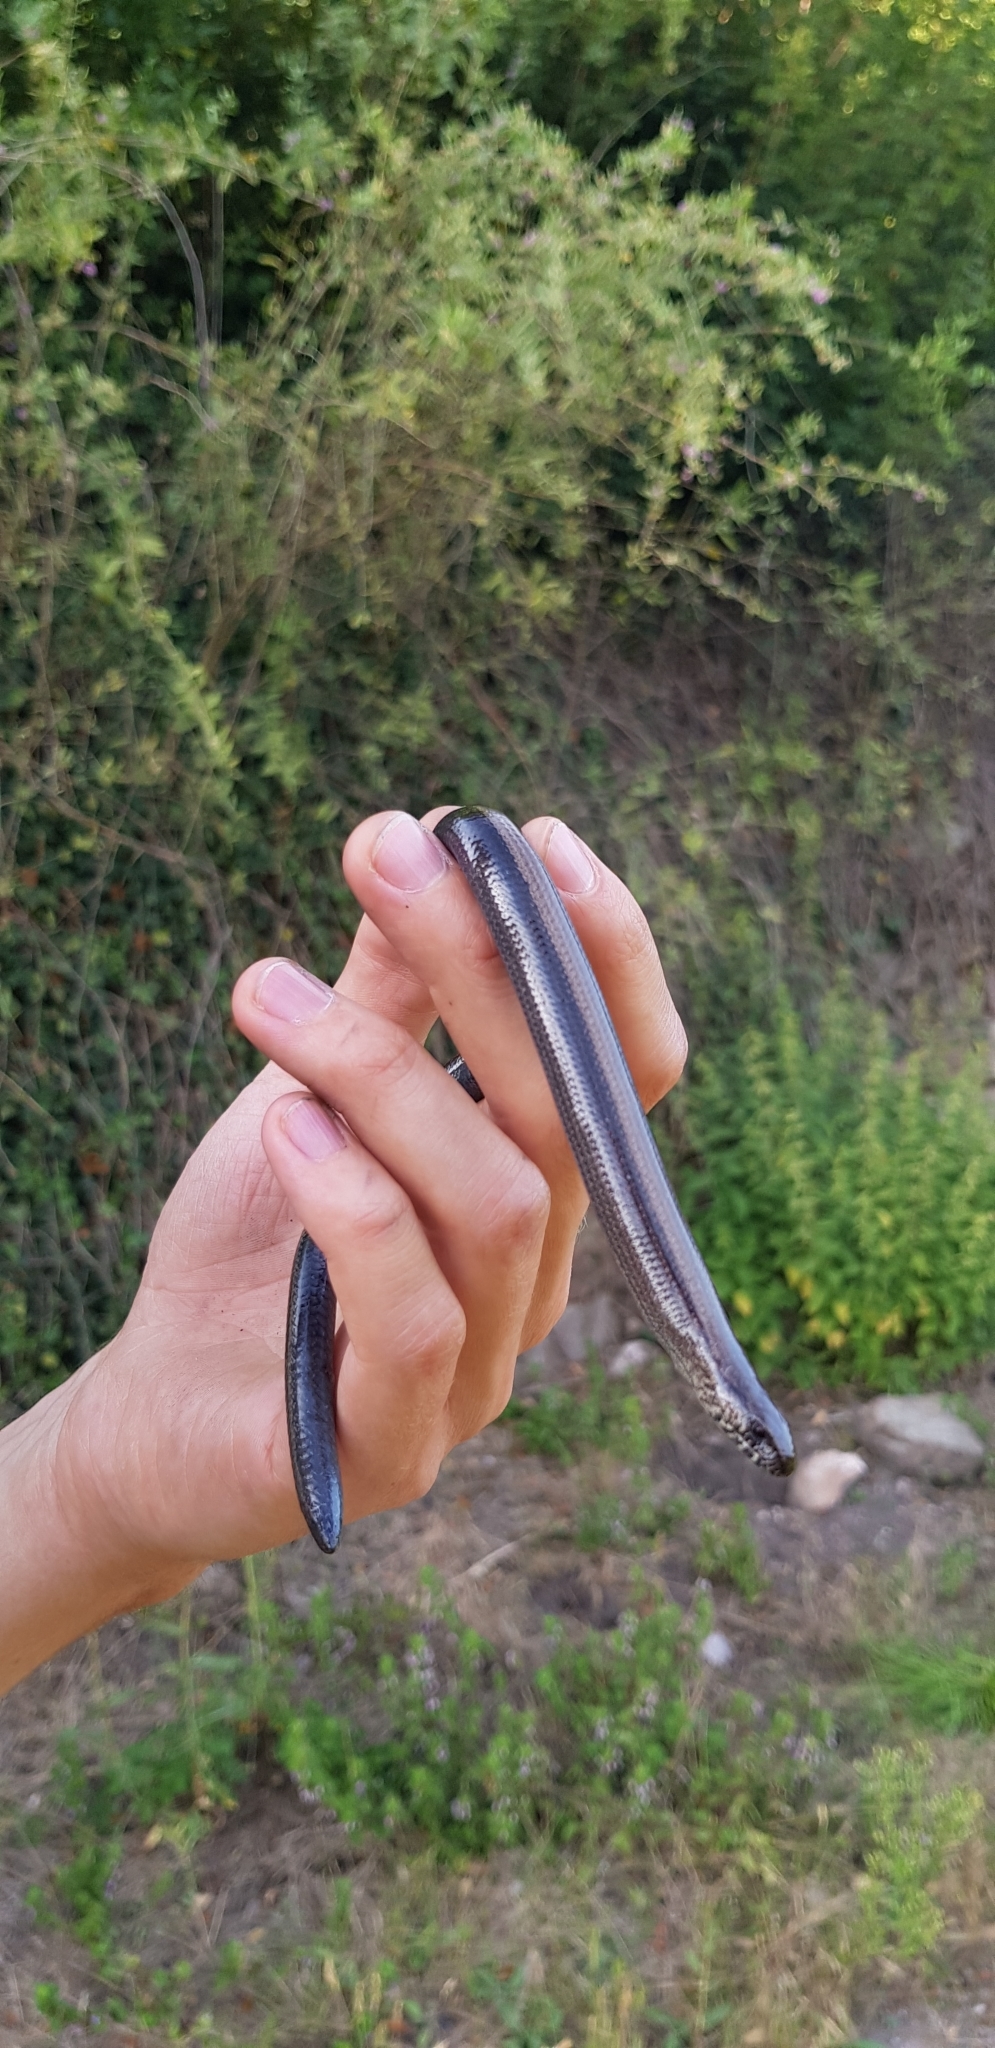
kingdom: Animalia
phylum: Chordata
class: Squamata
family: Anguidae
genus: Anguis
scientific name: Anguis fragilis
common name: Slow worm
